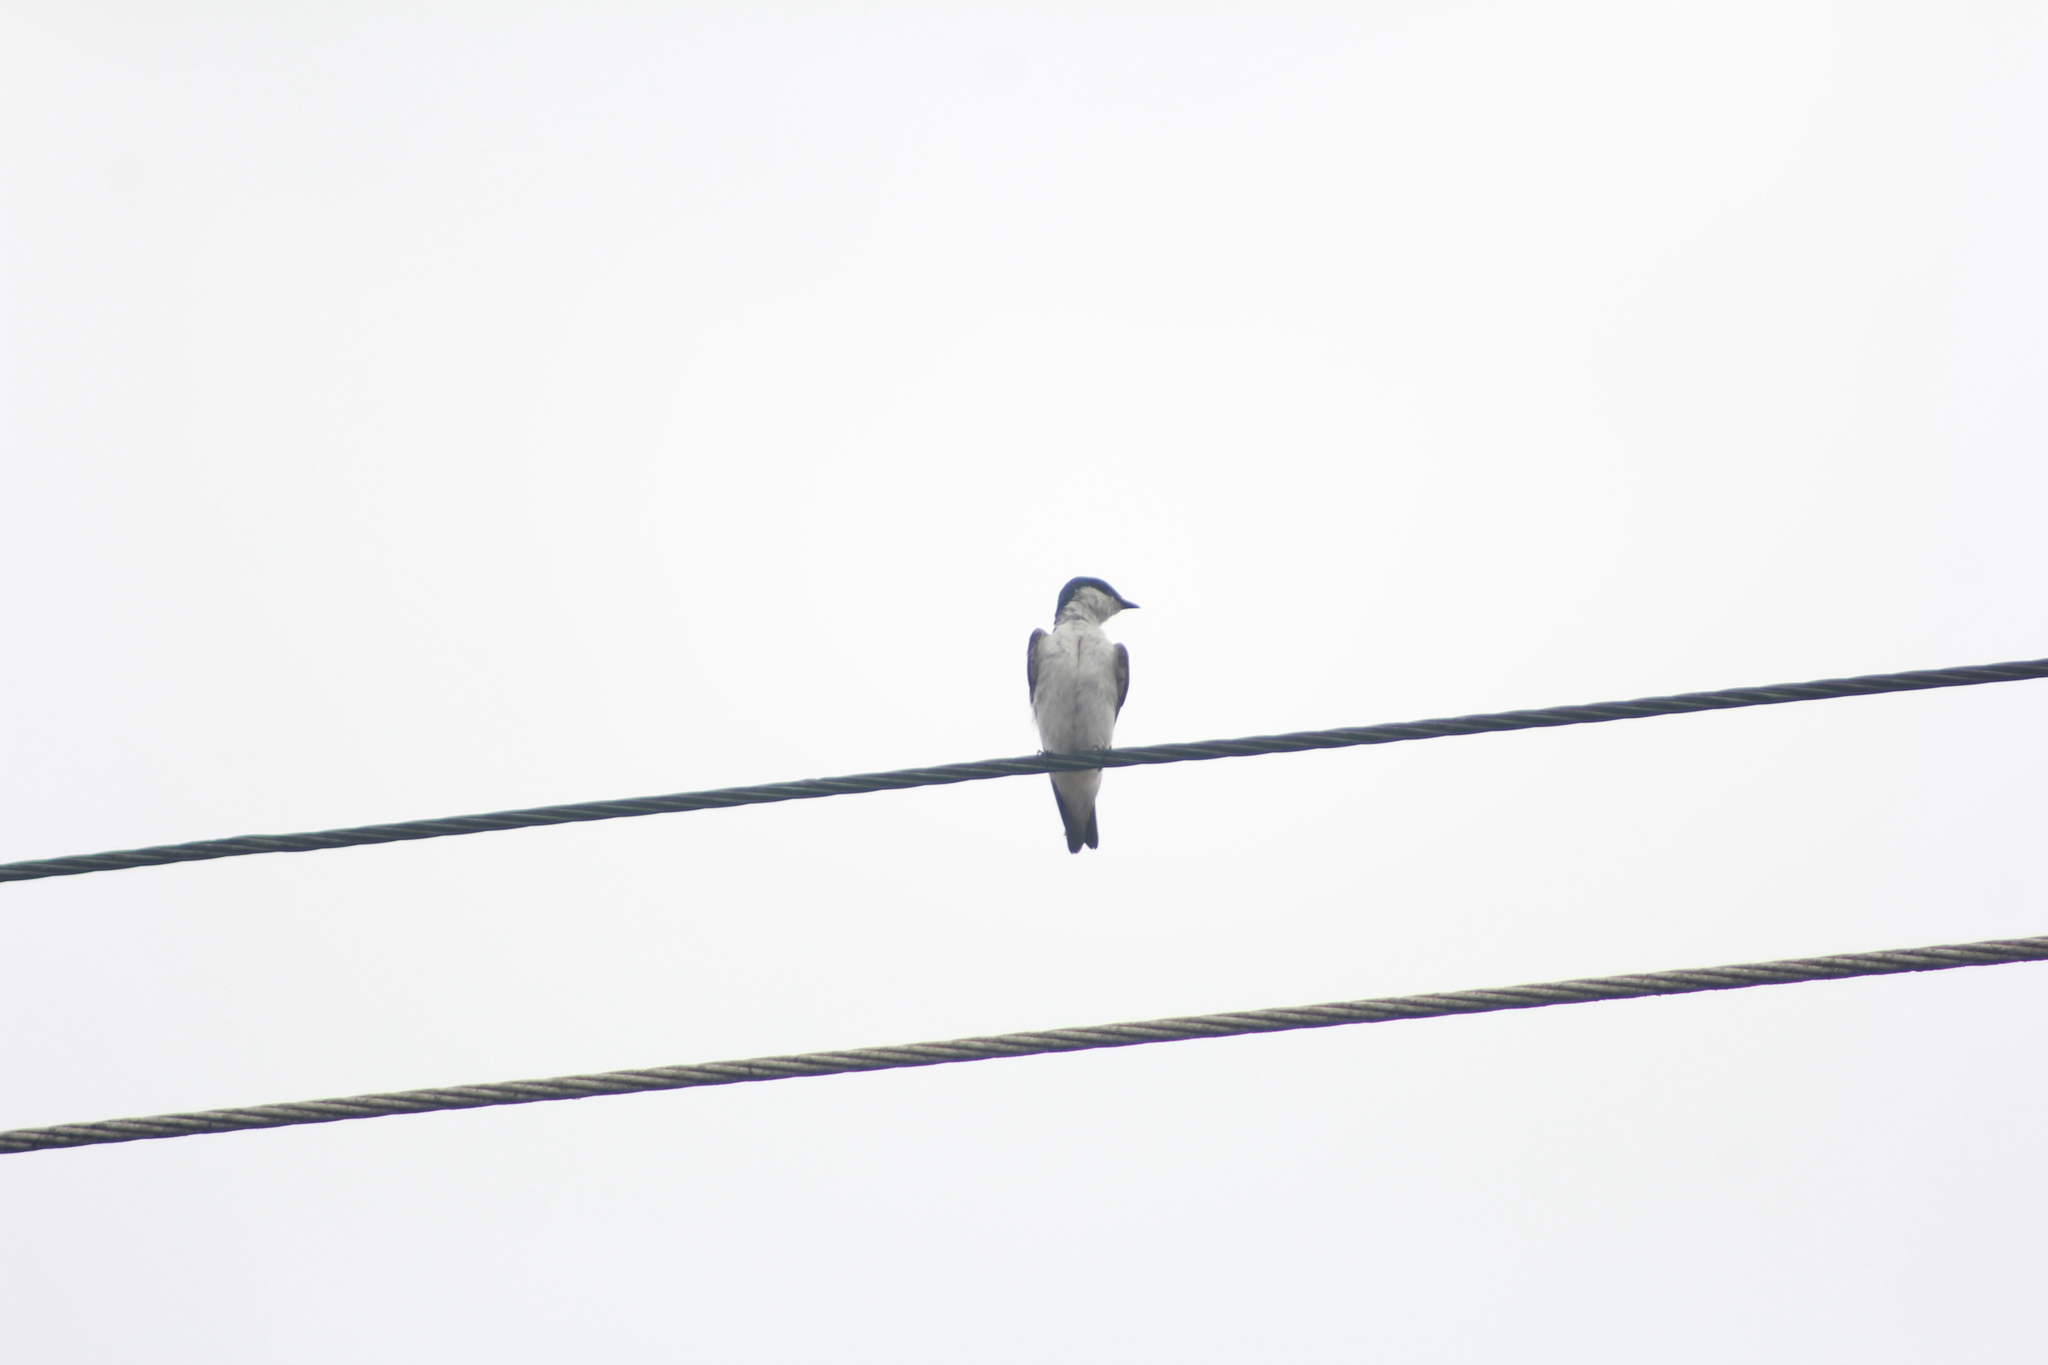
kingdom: Animalia
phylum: Chordata
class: Aves
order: Passeriformes
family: Hirundinidae
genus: Tachycineta
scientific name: Tachycineta albiventer
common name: White-winged swallow
